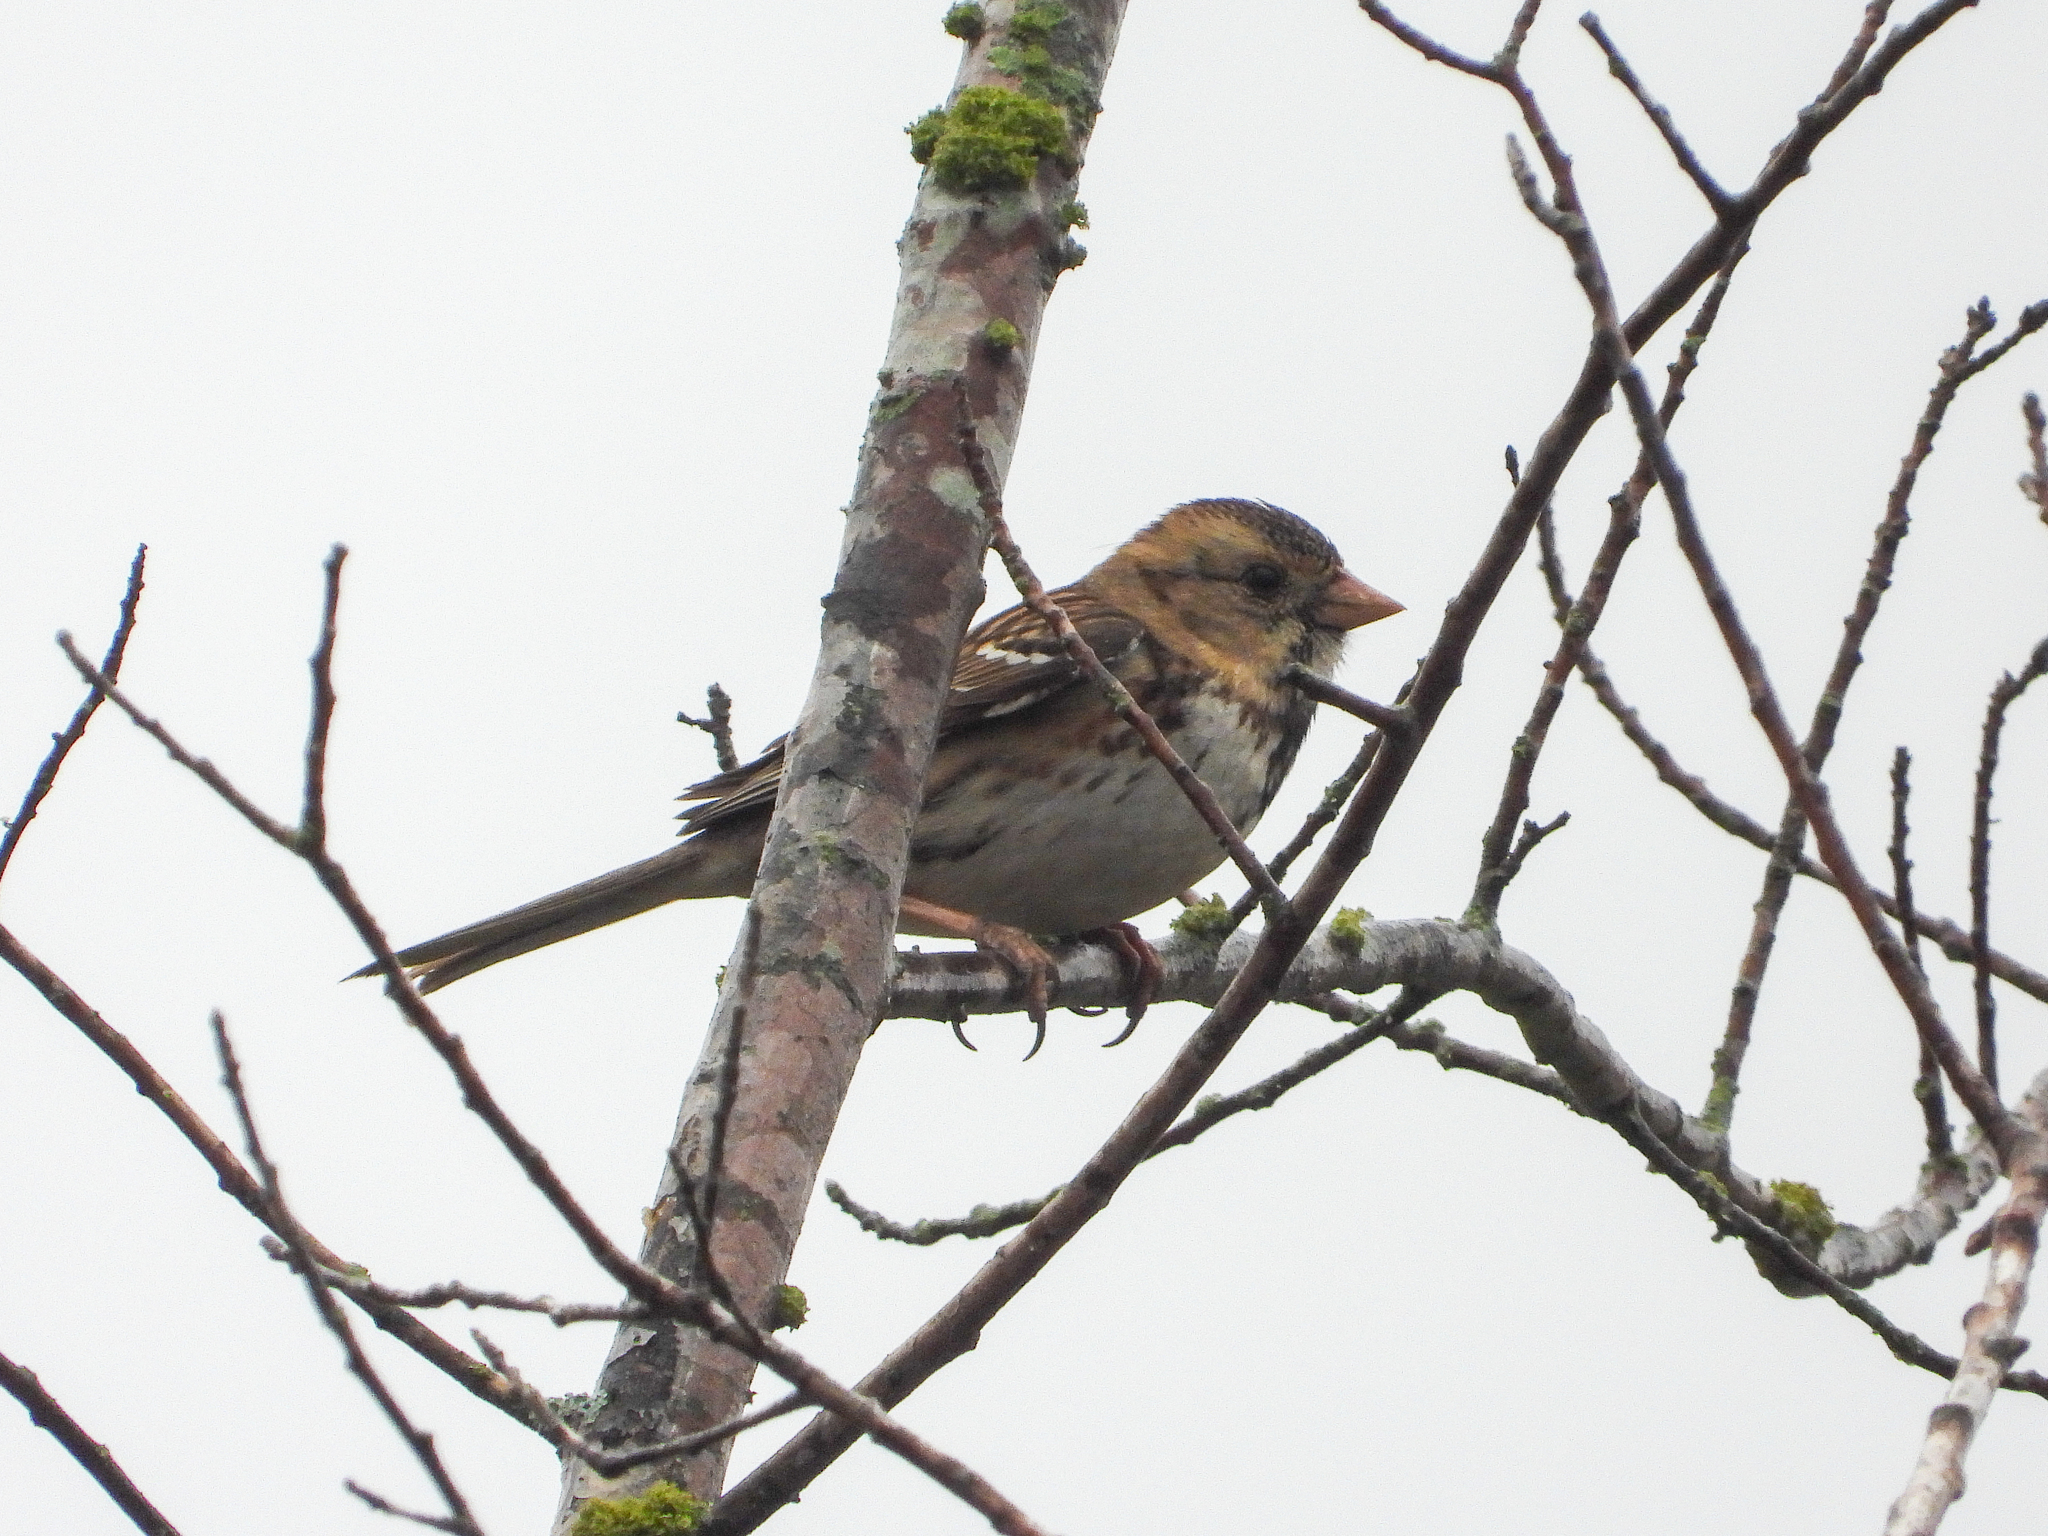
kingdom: Animalia
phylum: Chordata
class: Aves
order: Passeriformes
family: Passerellidae
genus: Zonotrichia
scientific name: Zonotrichia querula
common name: Harris's sparrow
